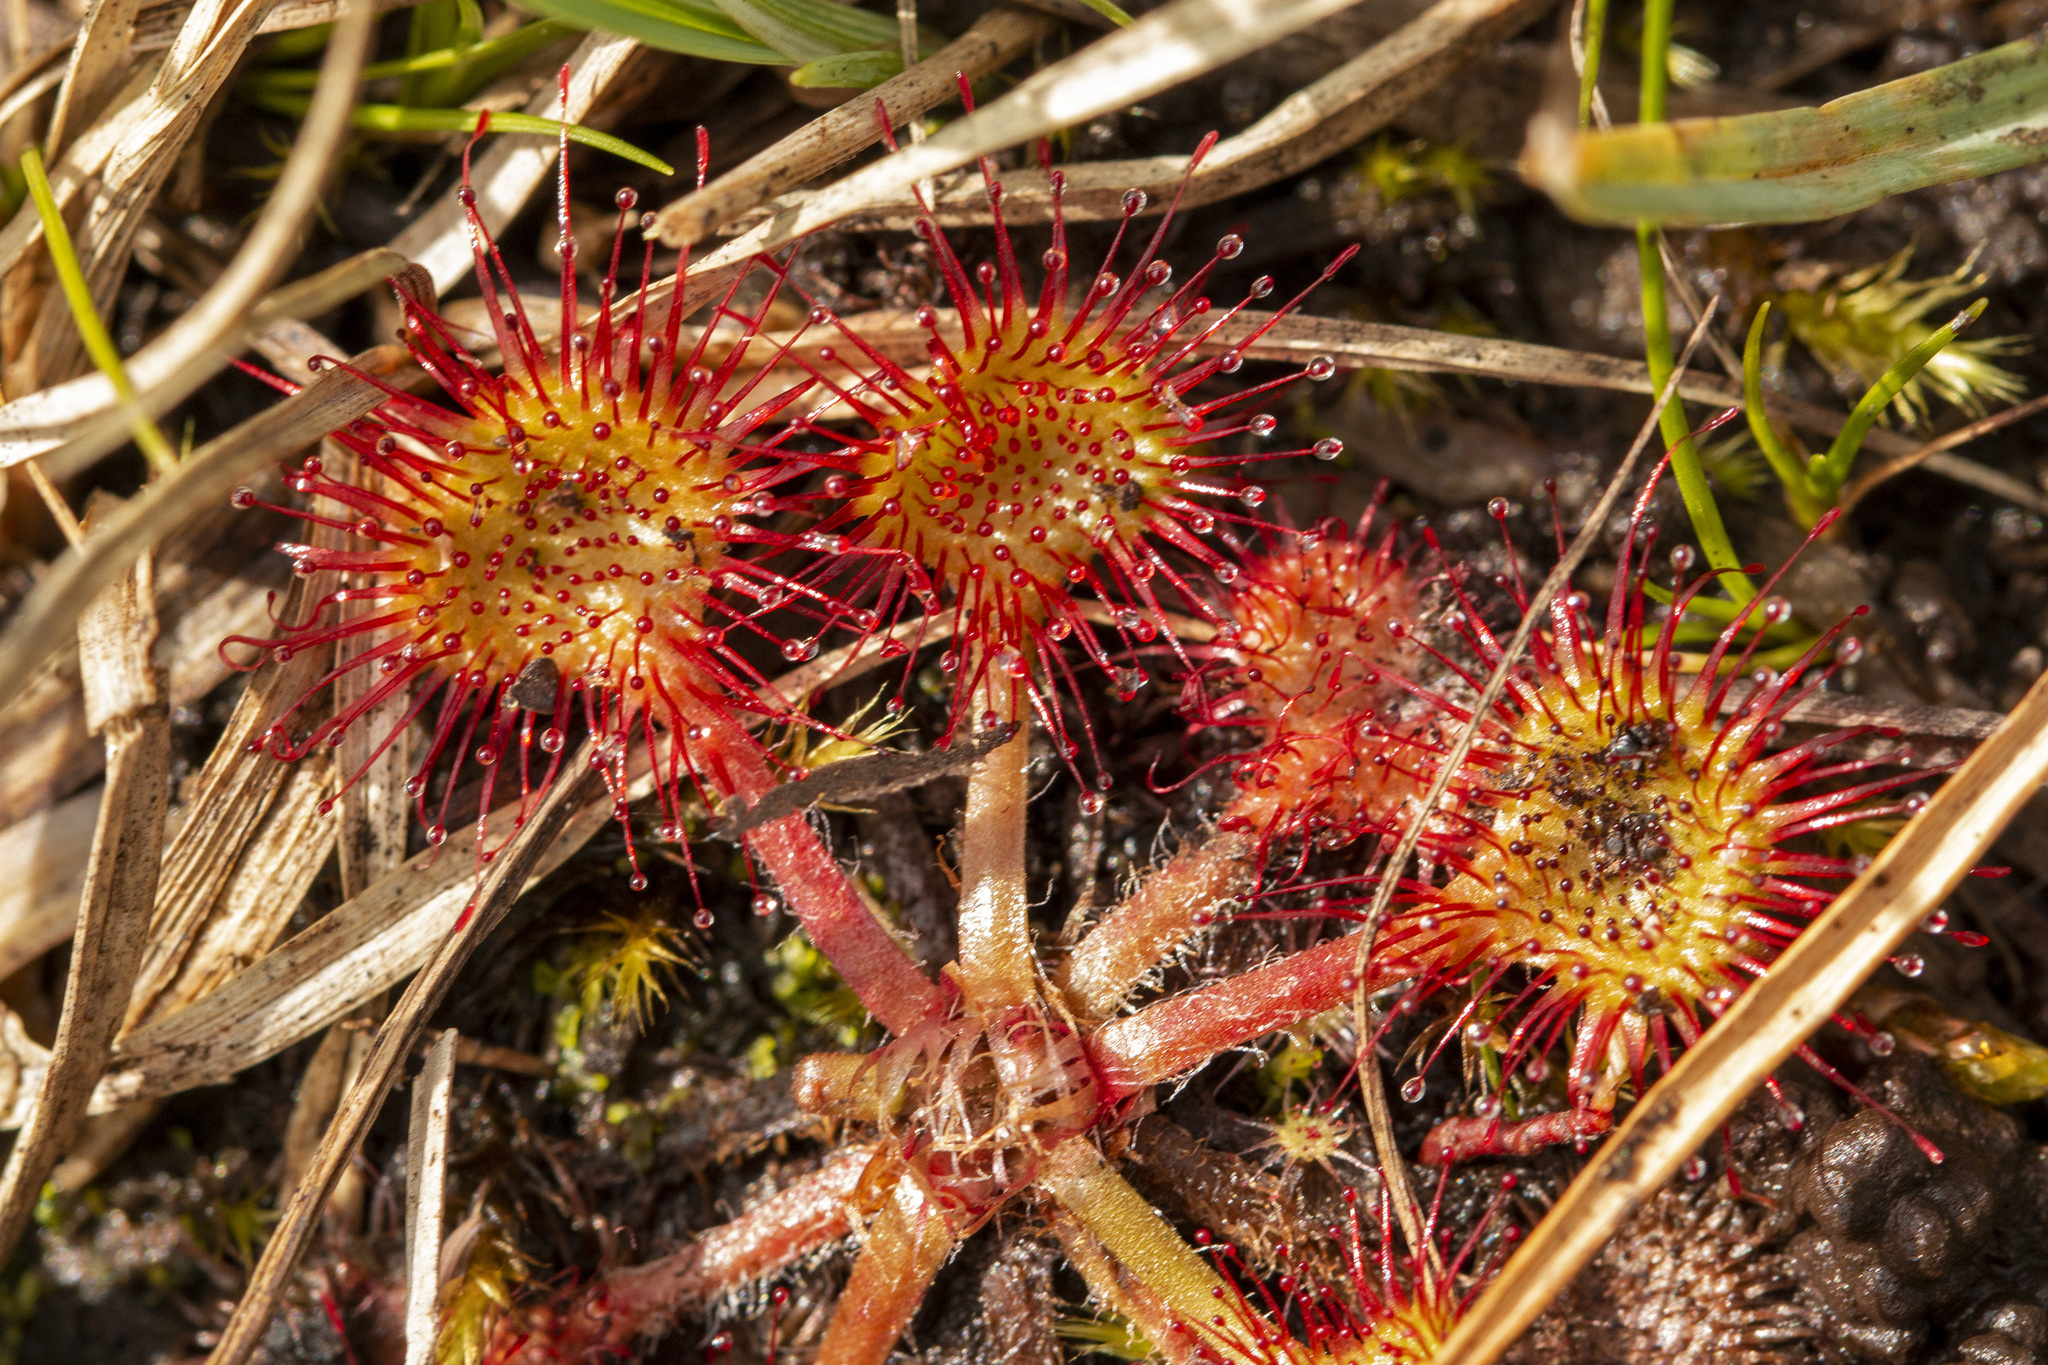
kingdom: Plantae
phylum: Tracheophyta
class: Magnoliopsida
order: Caryophyllales
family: Droseraceae
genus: Drosera
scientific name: Drosera rotundifolia
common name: Round-leaved sundew
